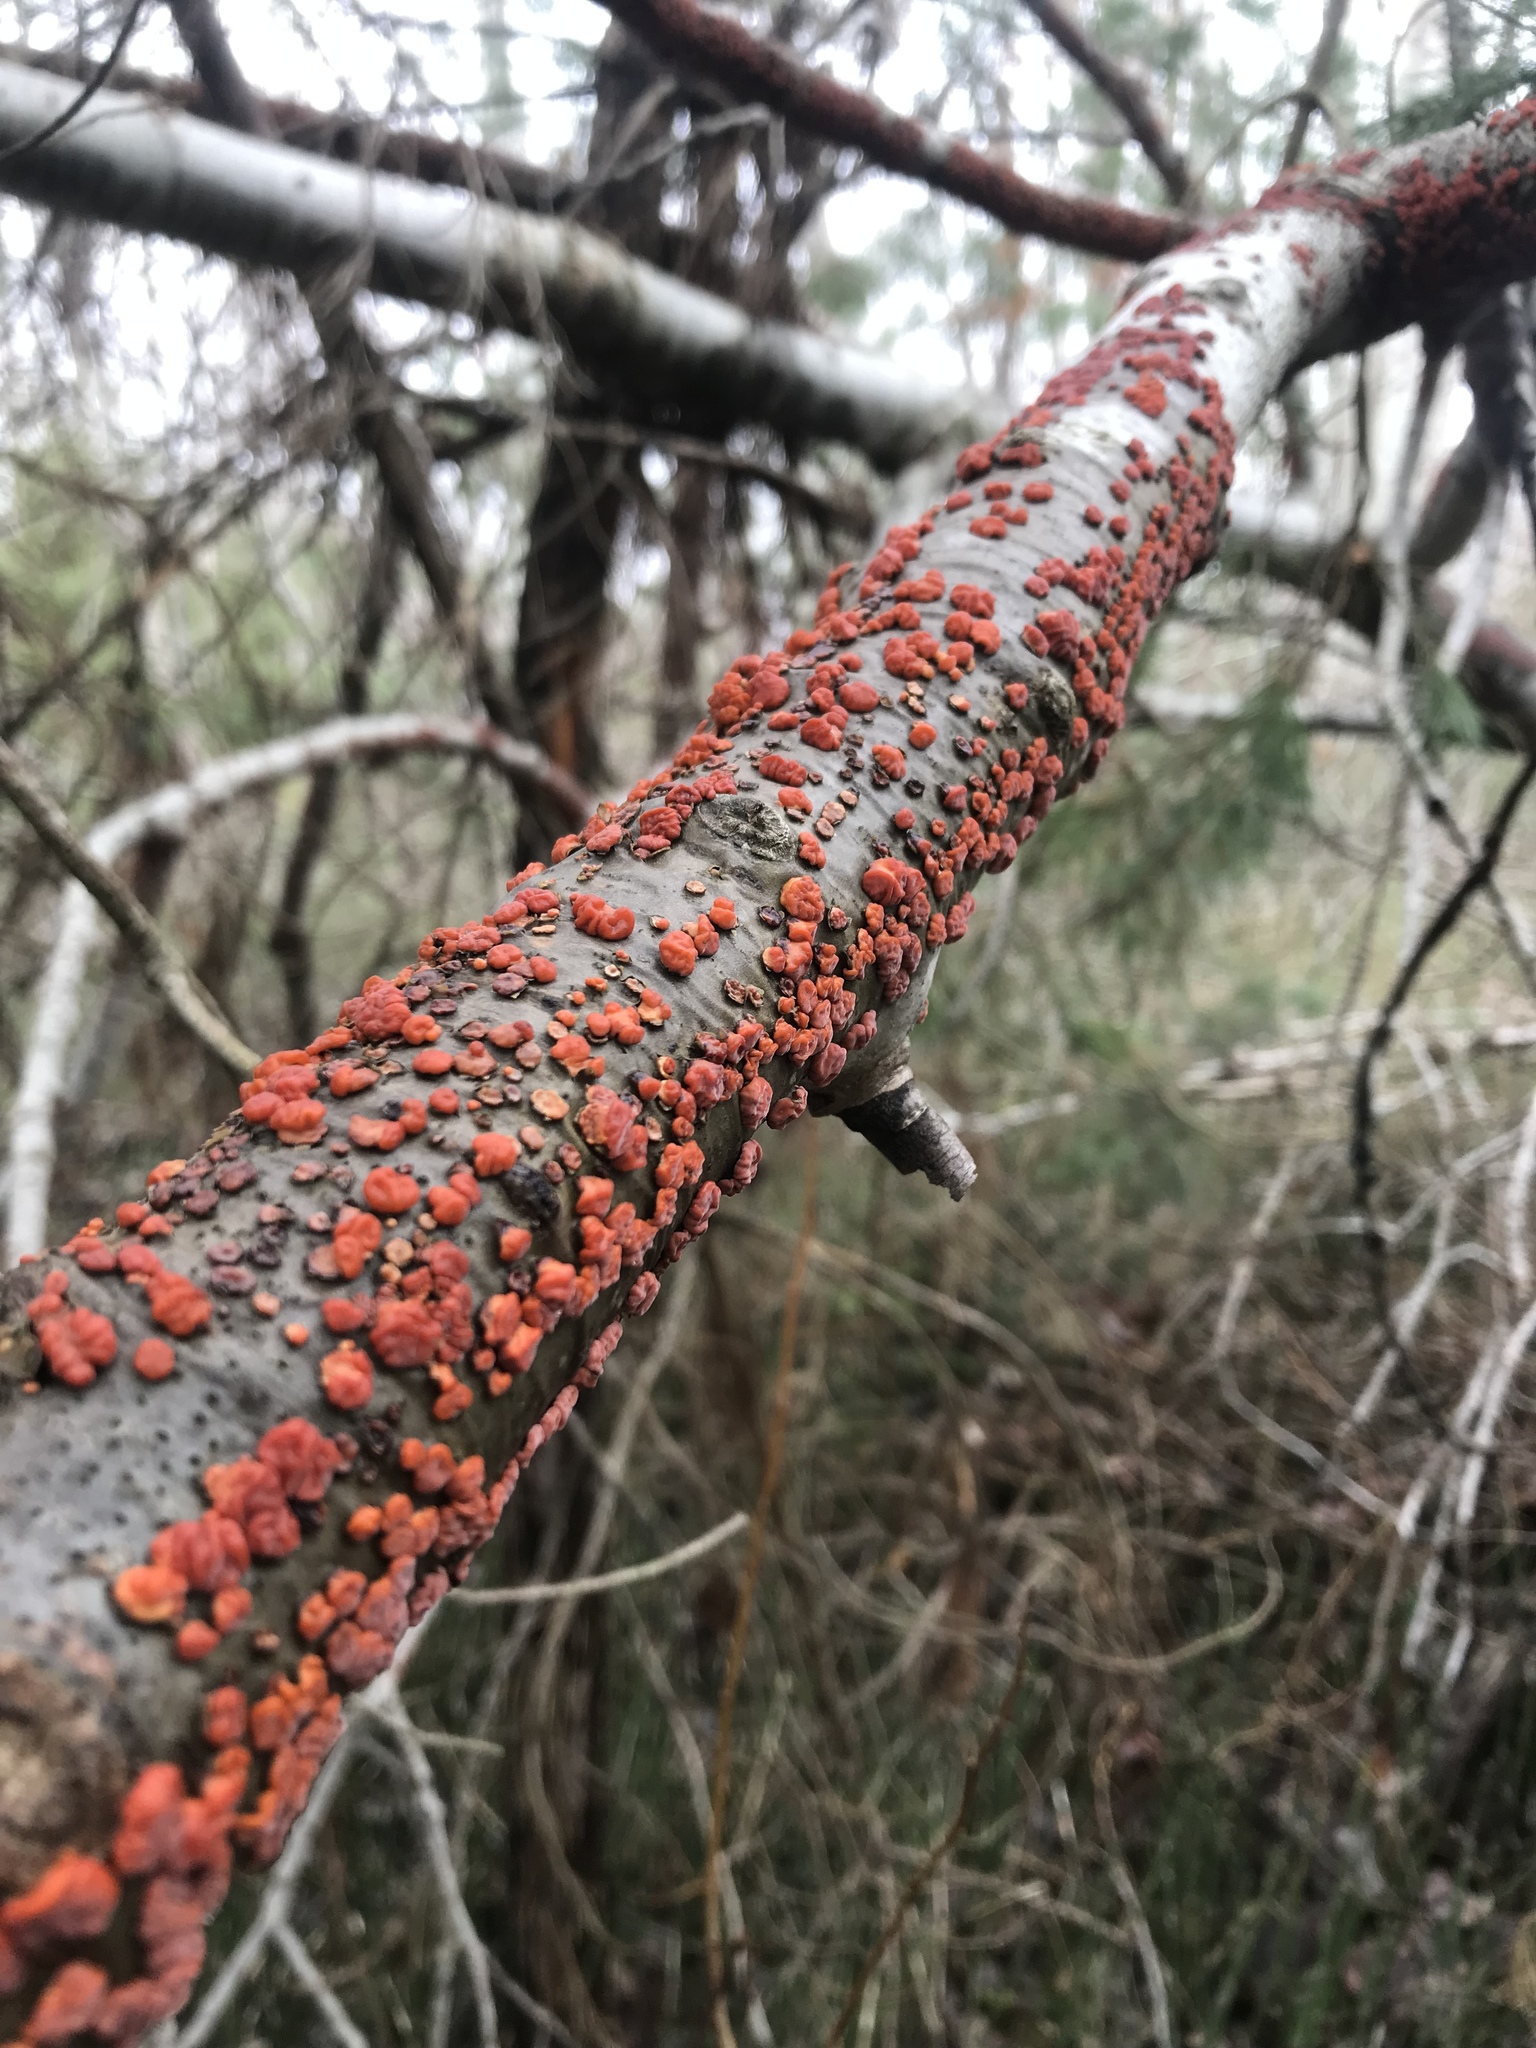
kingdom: Fungi
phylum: Basidiomycota
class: Agaricomycetes
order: Russulales
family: Peniophoraceae
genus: Peniophora
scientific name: Peniophora rufa
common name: Red tree brain fungus
